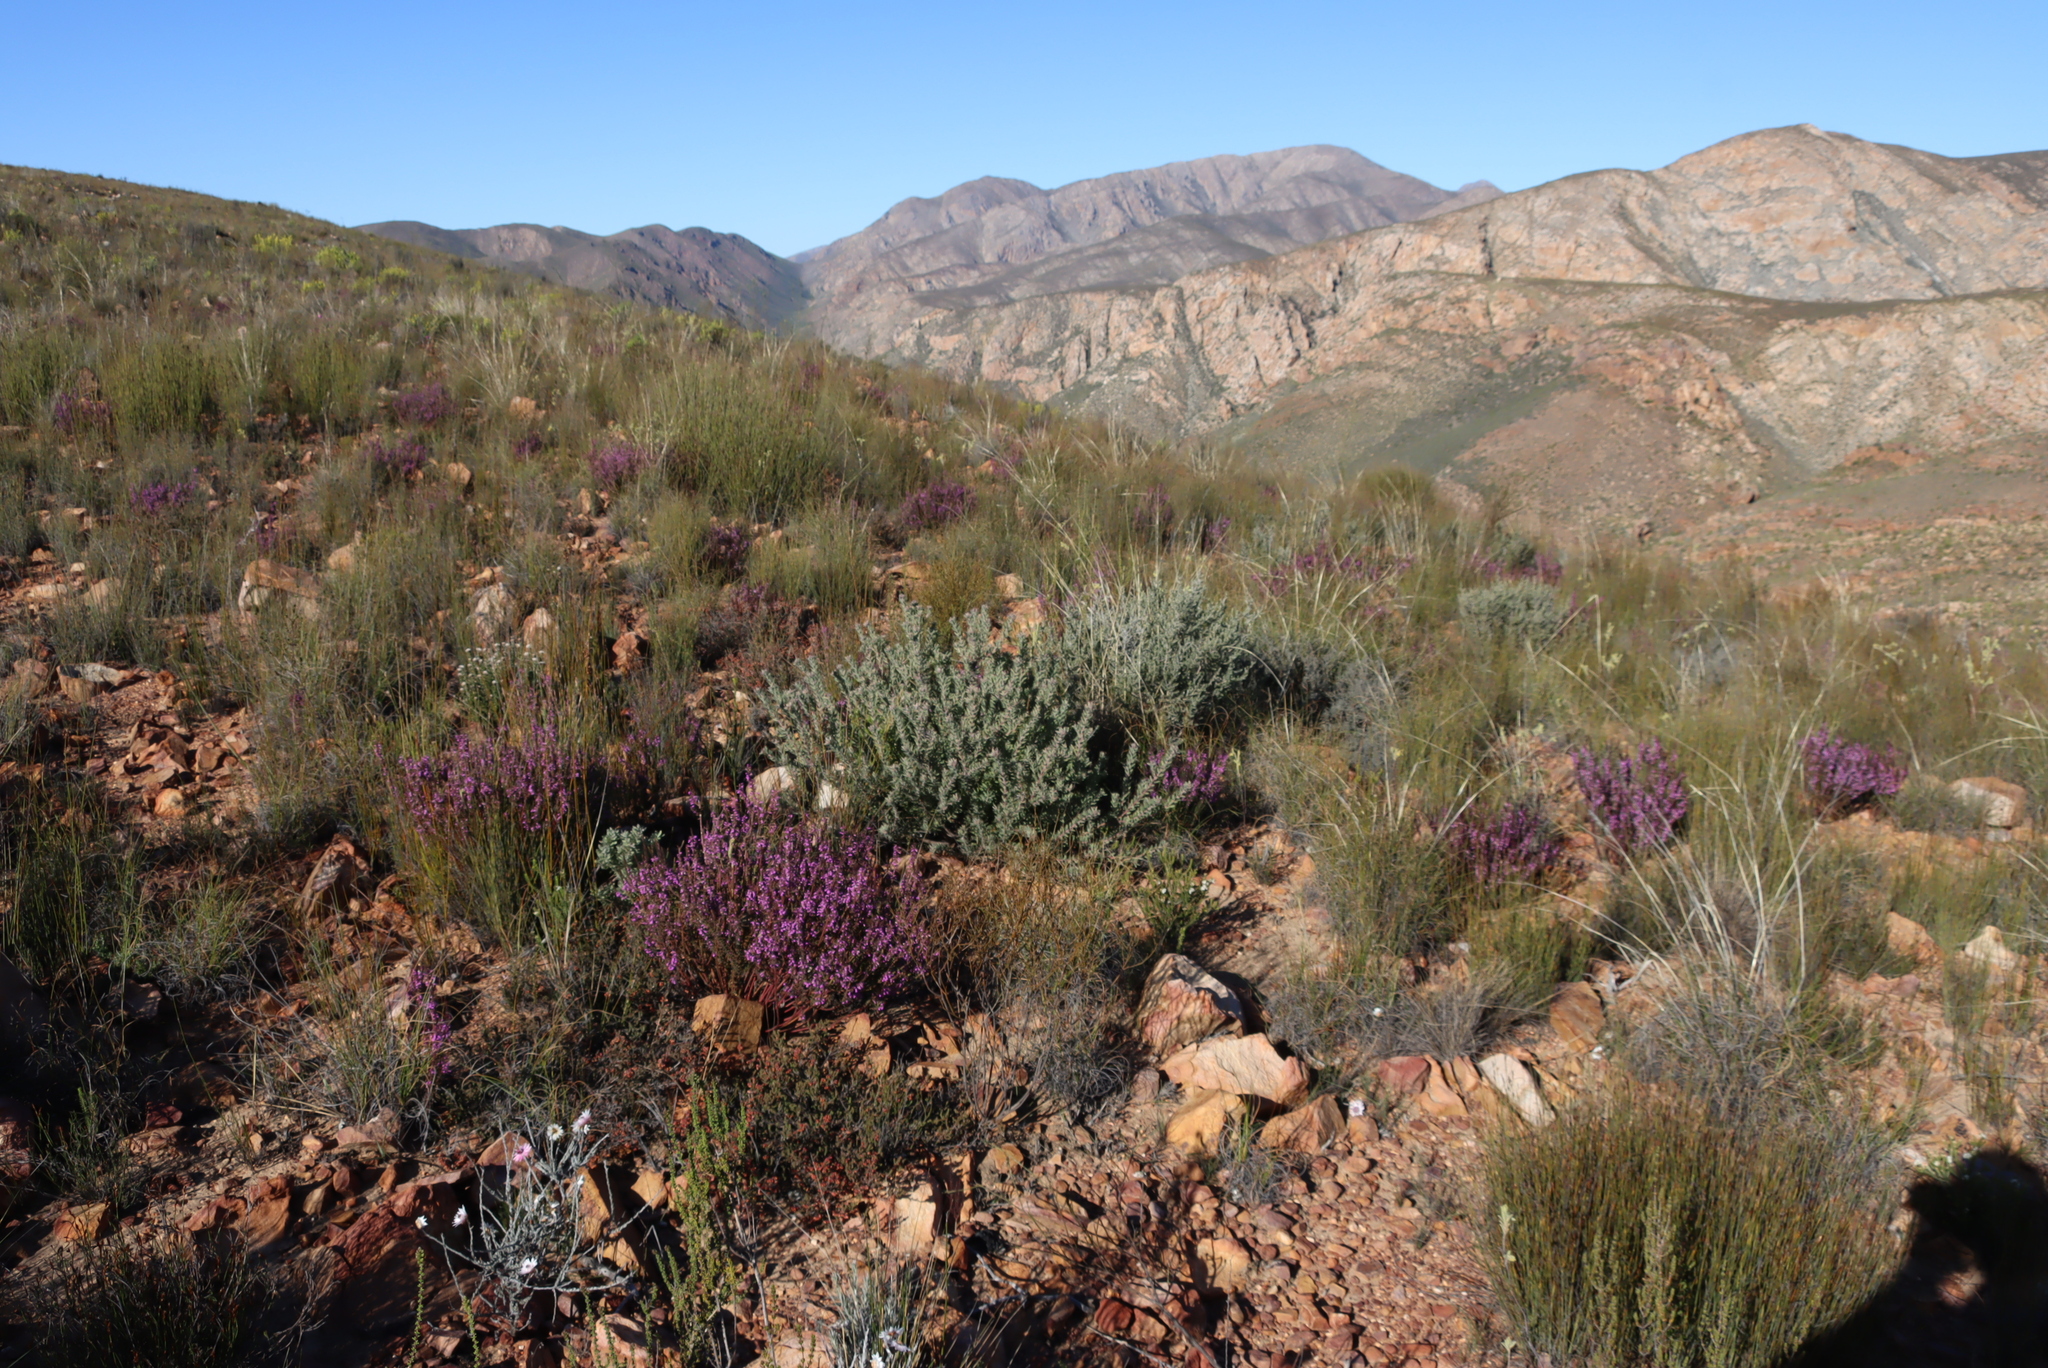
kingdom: Plantae
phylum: Tracheophyta
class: Magnoliopsida
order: Proteales
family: Proteaceae
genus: Leucospermum
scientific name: Leucospermum wittebergense
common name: Swartberg pincushion
